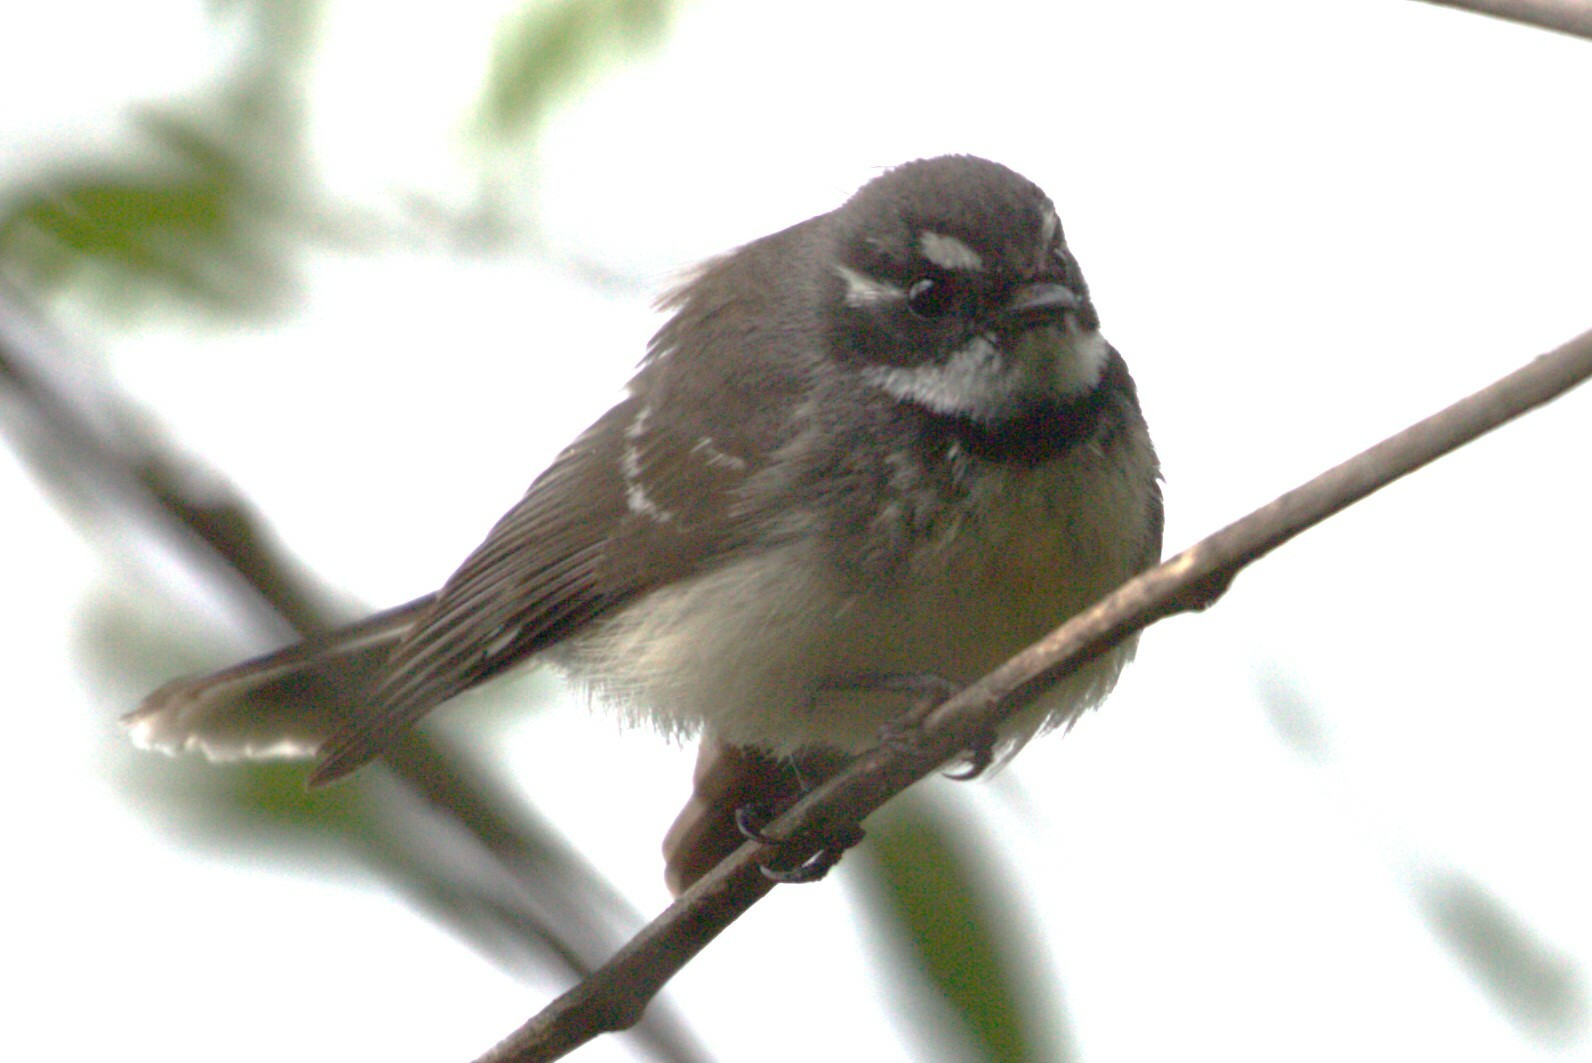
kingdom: Animalia
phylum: Chordata
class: Aves
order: Passeriformes
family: Rhipiduridae
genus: Rhipidura
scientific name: Rhipidura albiscapa
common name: Grey fantail
